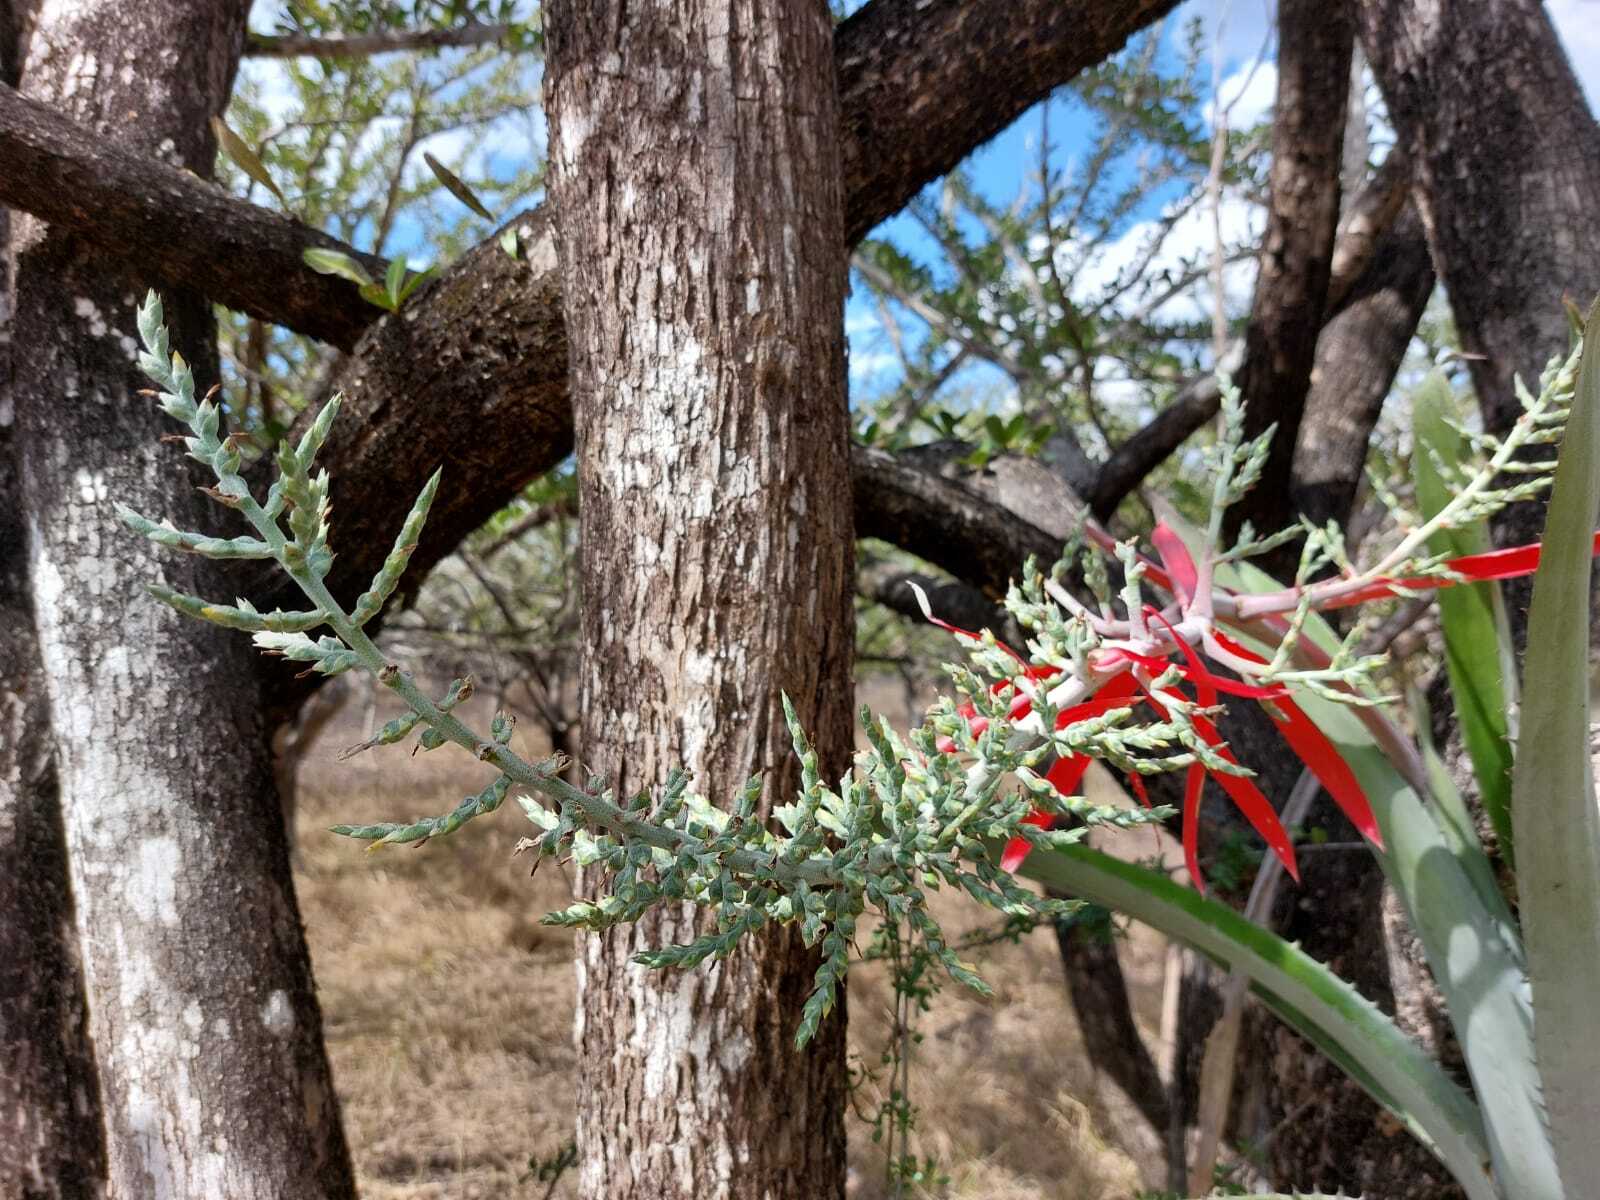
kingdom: Plantae
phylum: Tracheophyta
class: Liliopsida
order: Poales
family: Bromeliaceae
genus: Aechmea
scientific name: Aechmea bracteata
